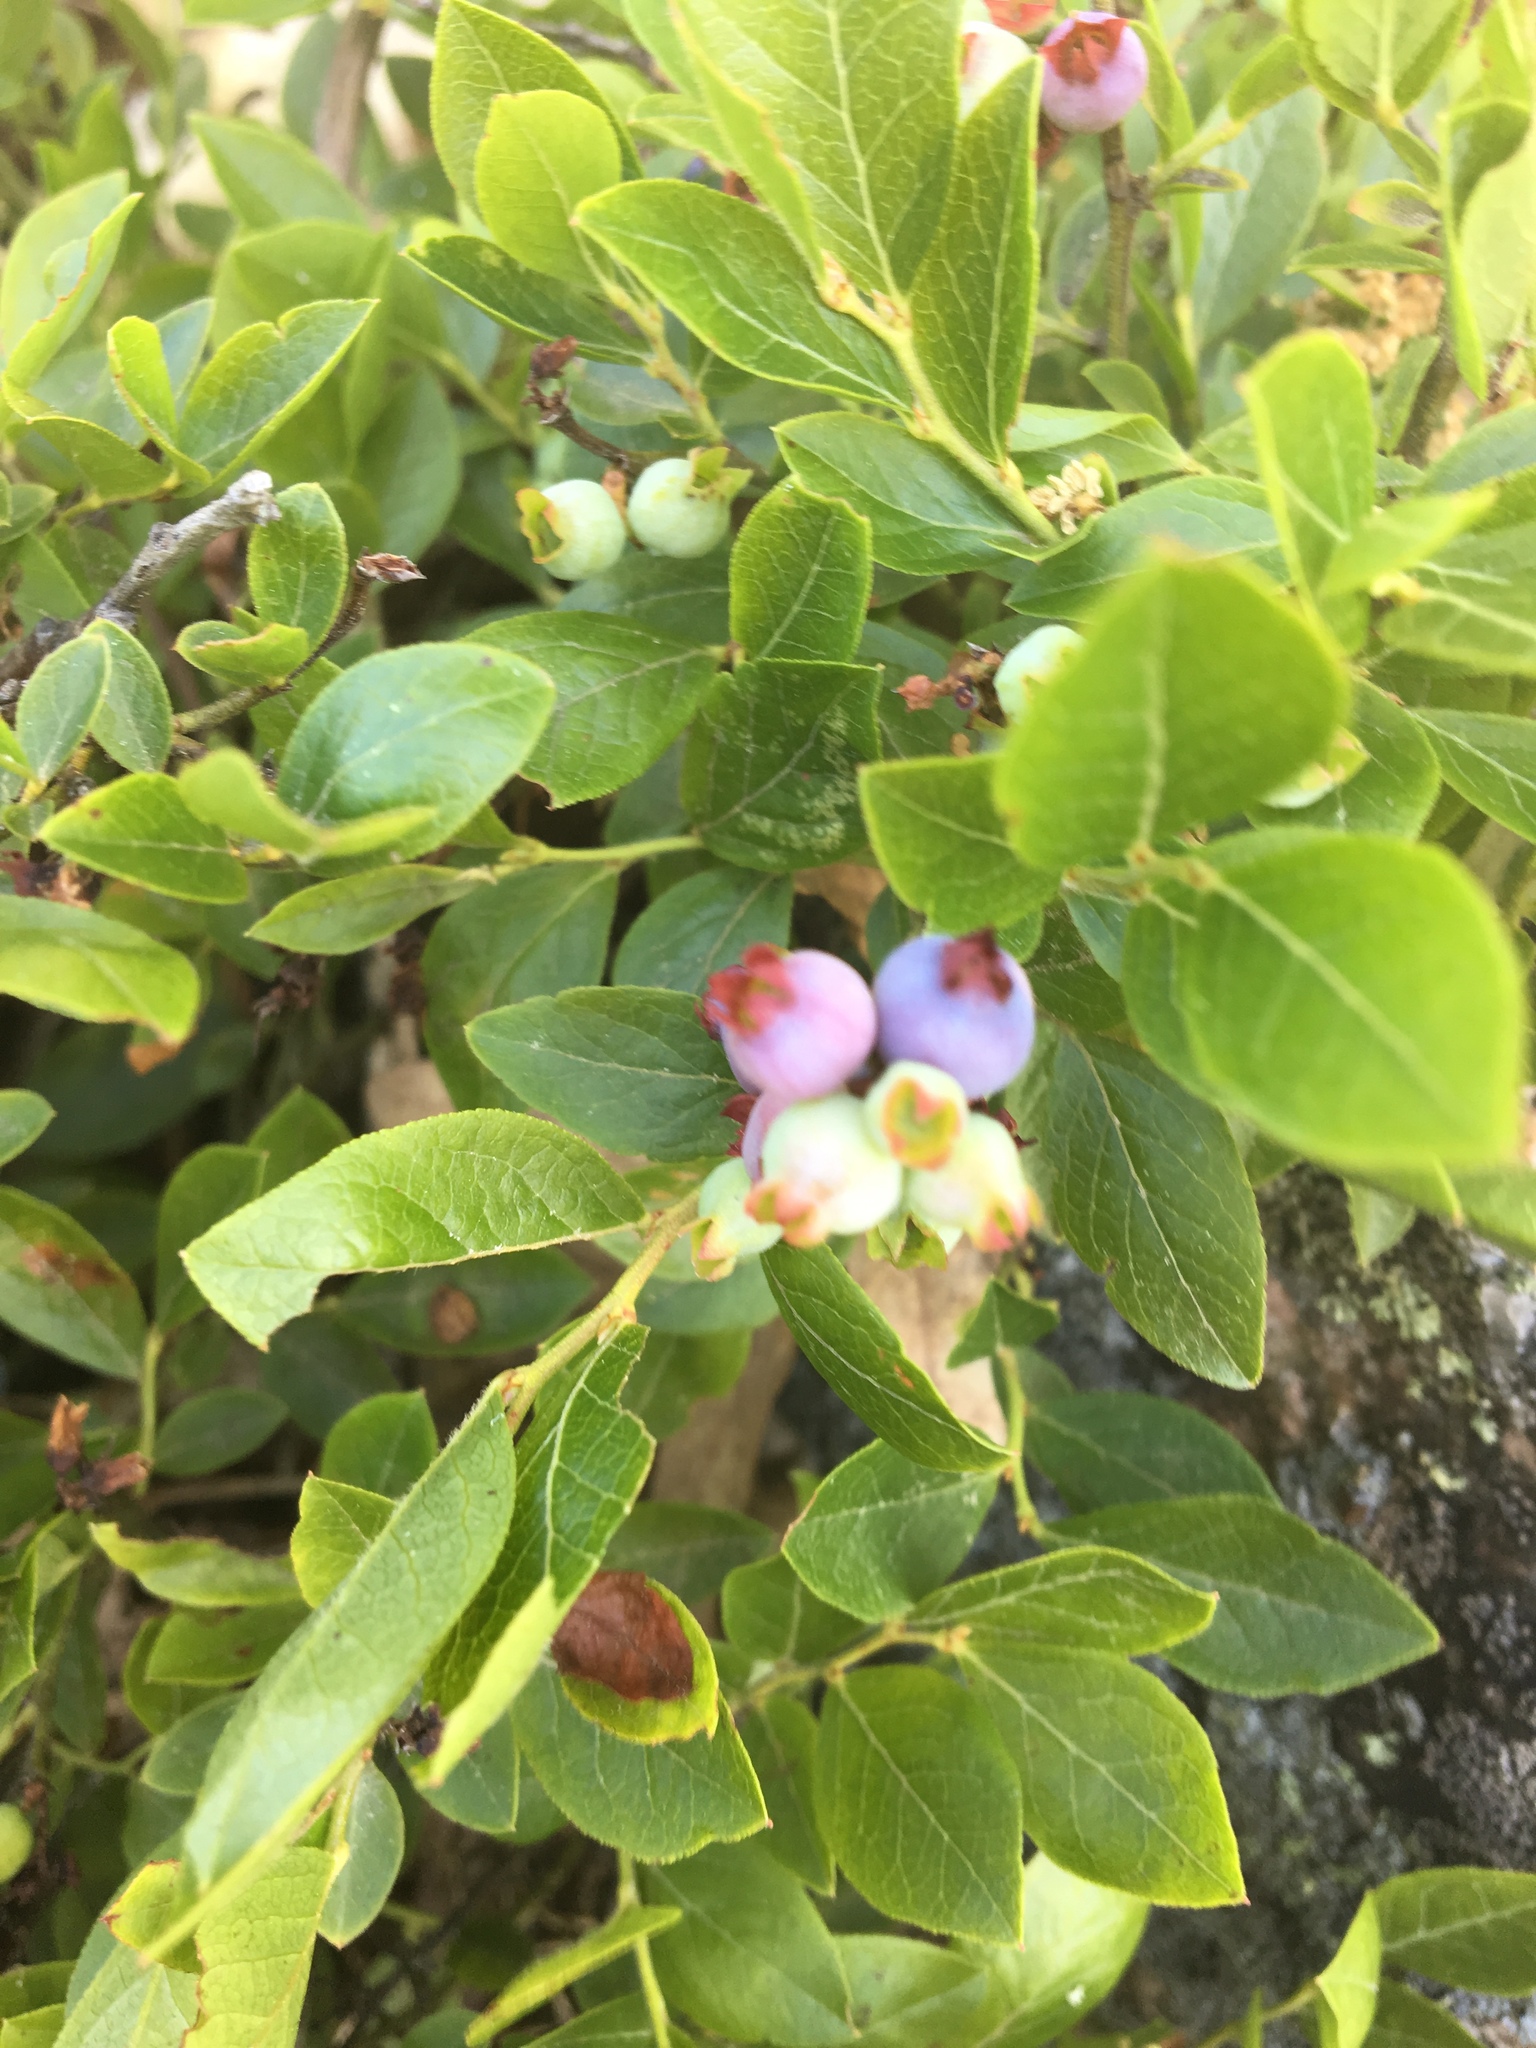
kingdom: Plantae
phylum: Tracheophyta
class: Magnoliopsida
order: Ericales
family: Ericaceae
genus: Vaccinium
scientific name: Vaccinium angustifolium
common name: Early lowbush blueberry
